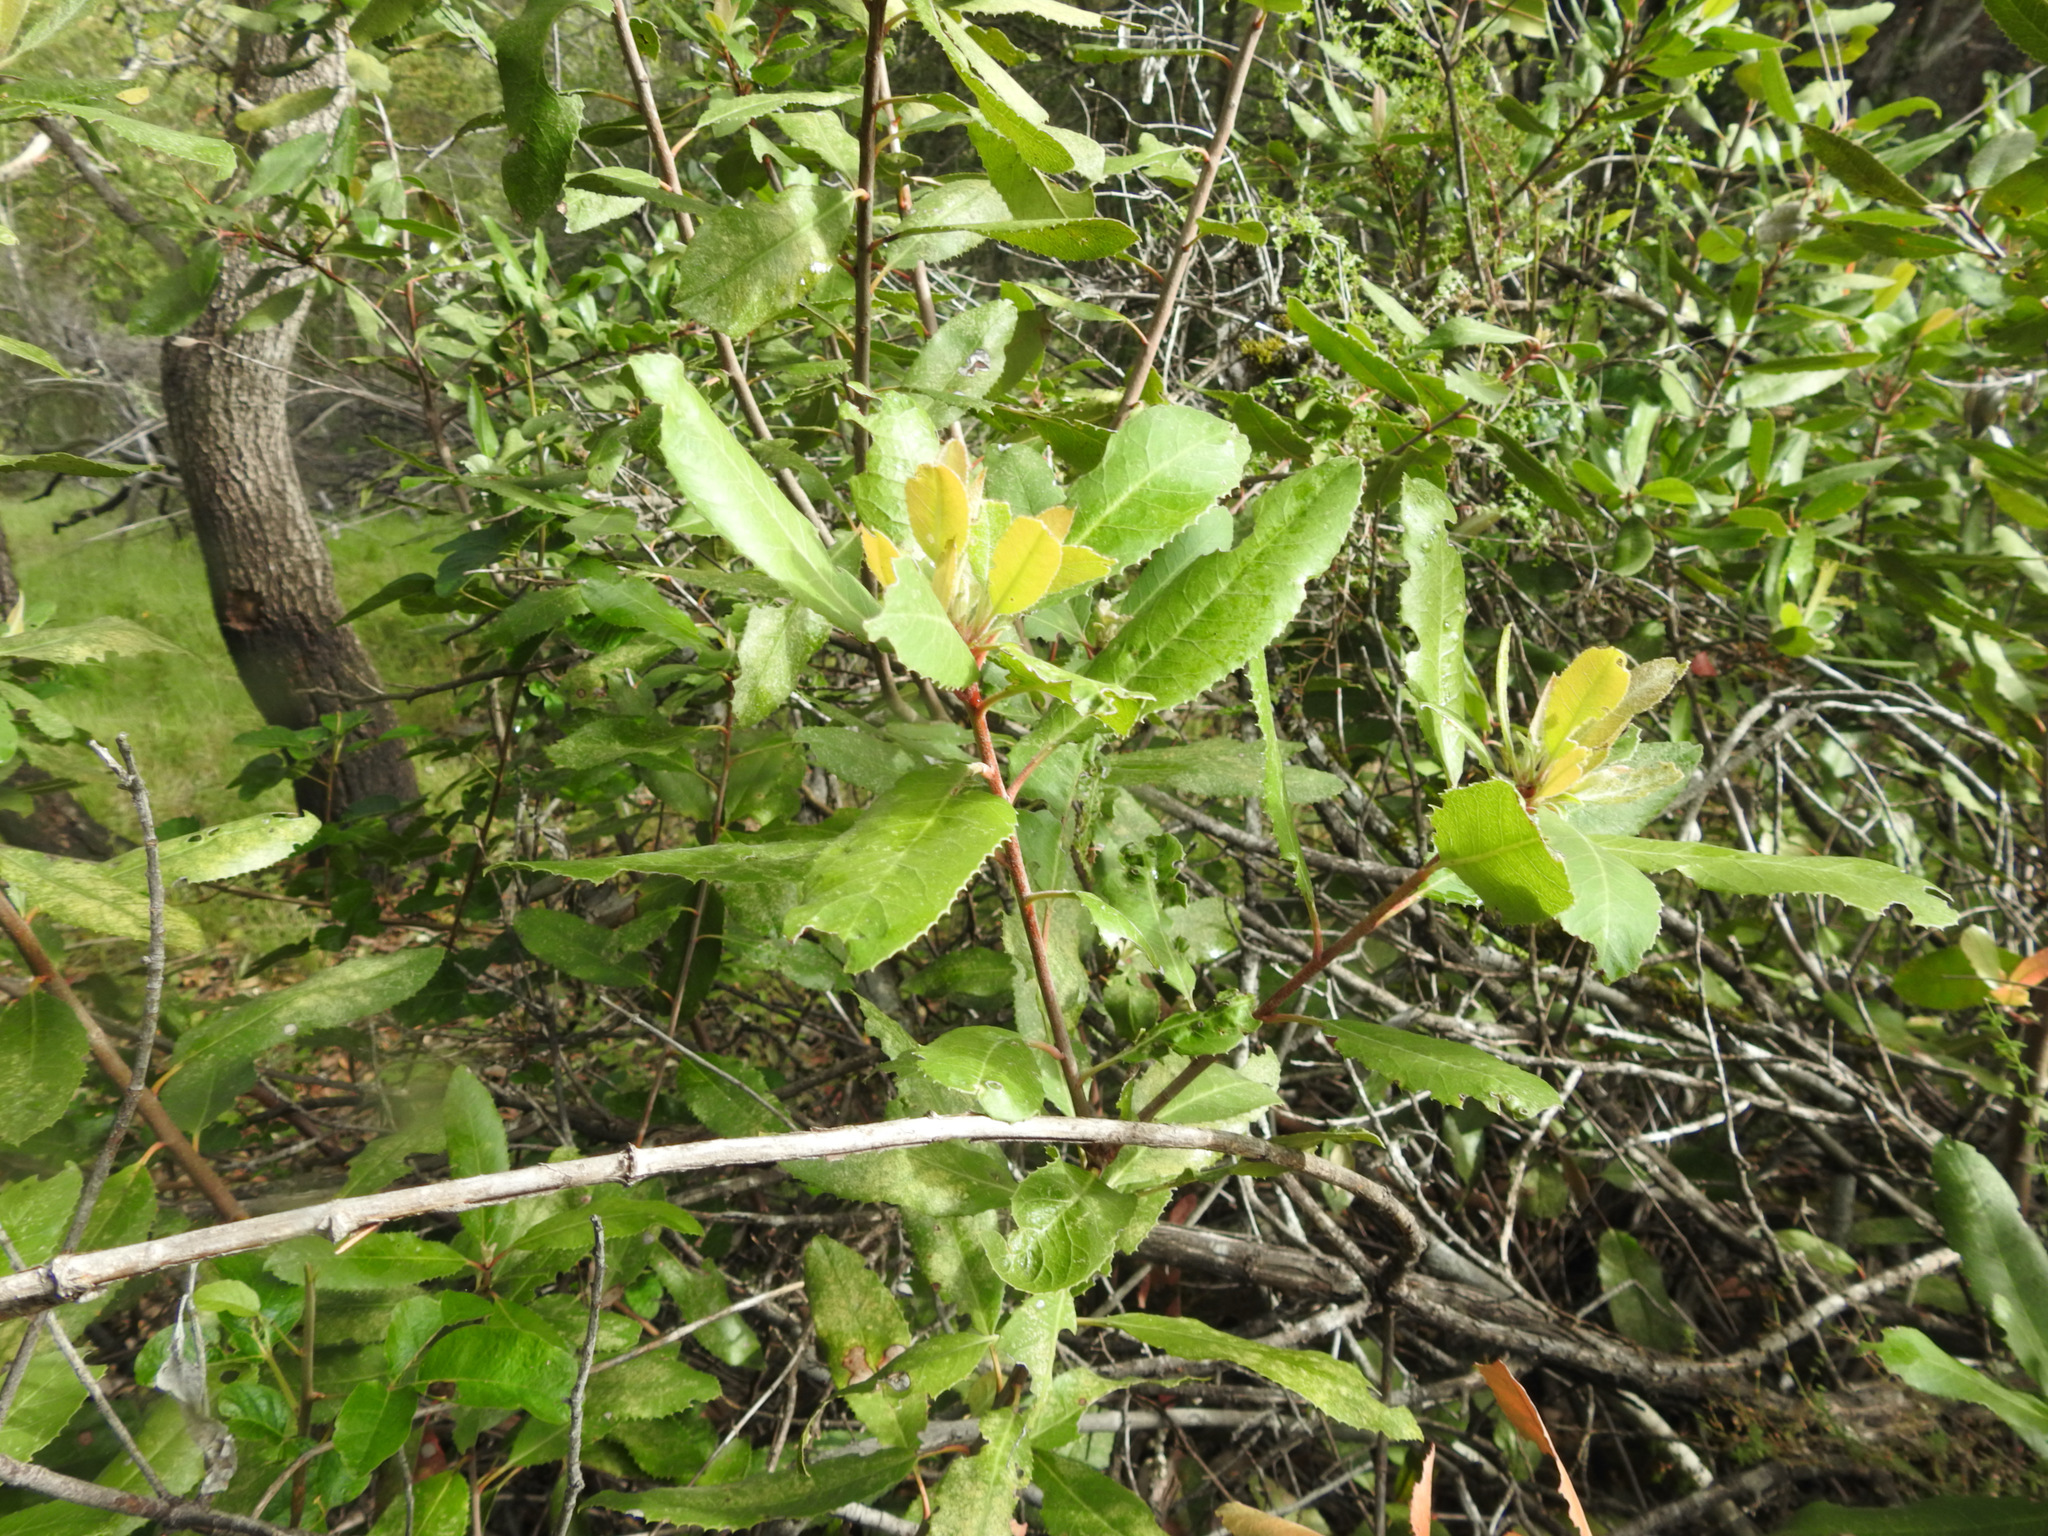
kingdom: Plantae
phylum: Tracheophyta
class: Magnoliopsida
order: Rosales
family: Rosaceae
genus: Heteromeles
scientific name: Heteromeles arbutifolia
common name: California-holly
